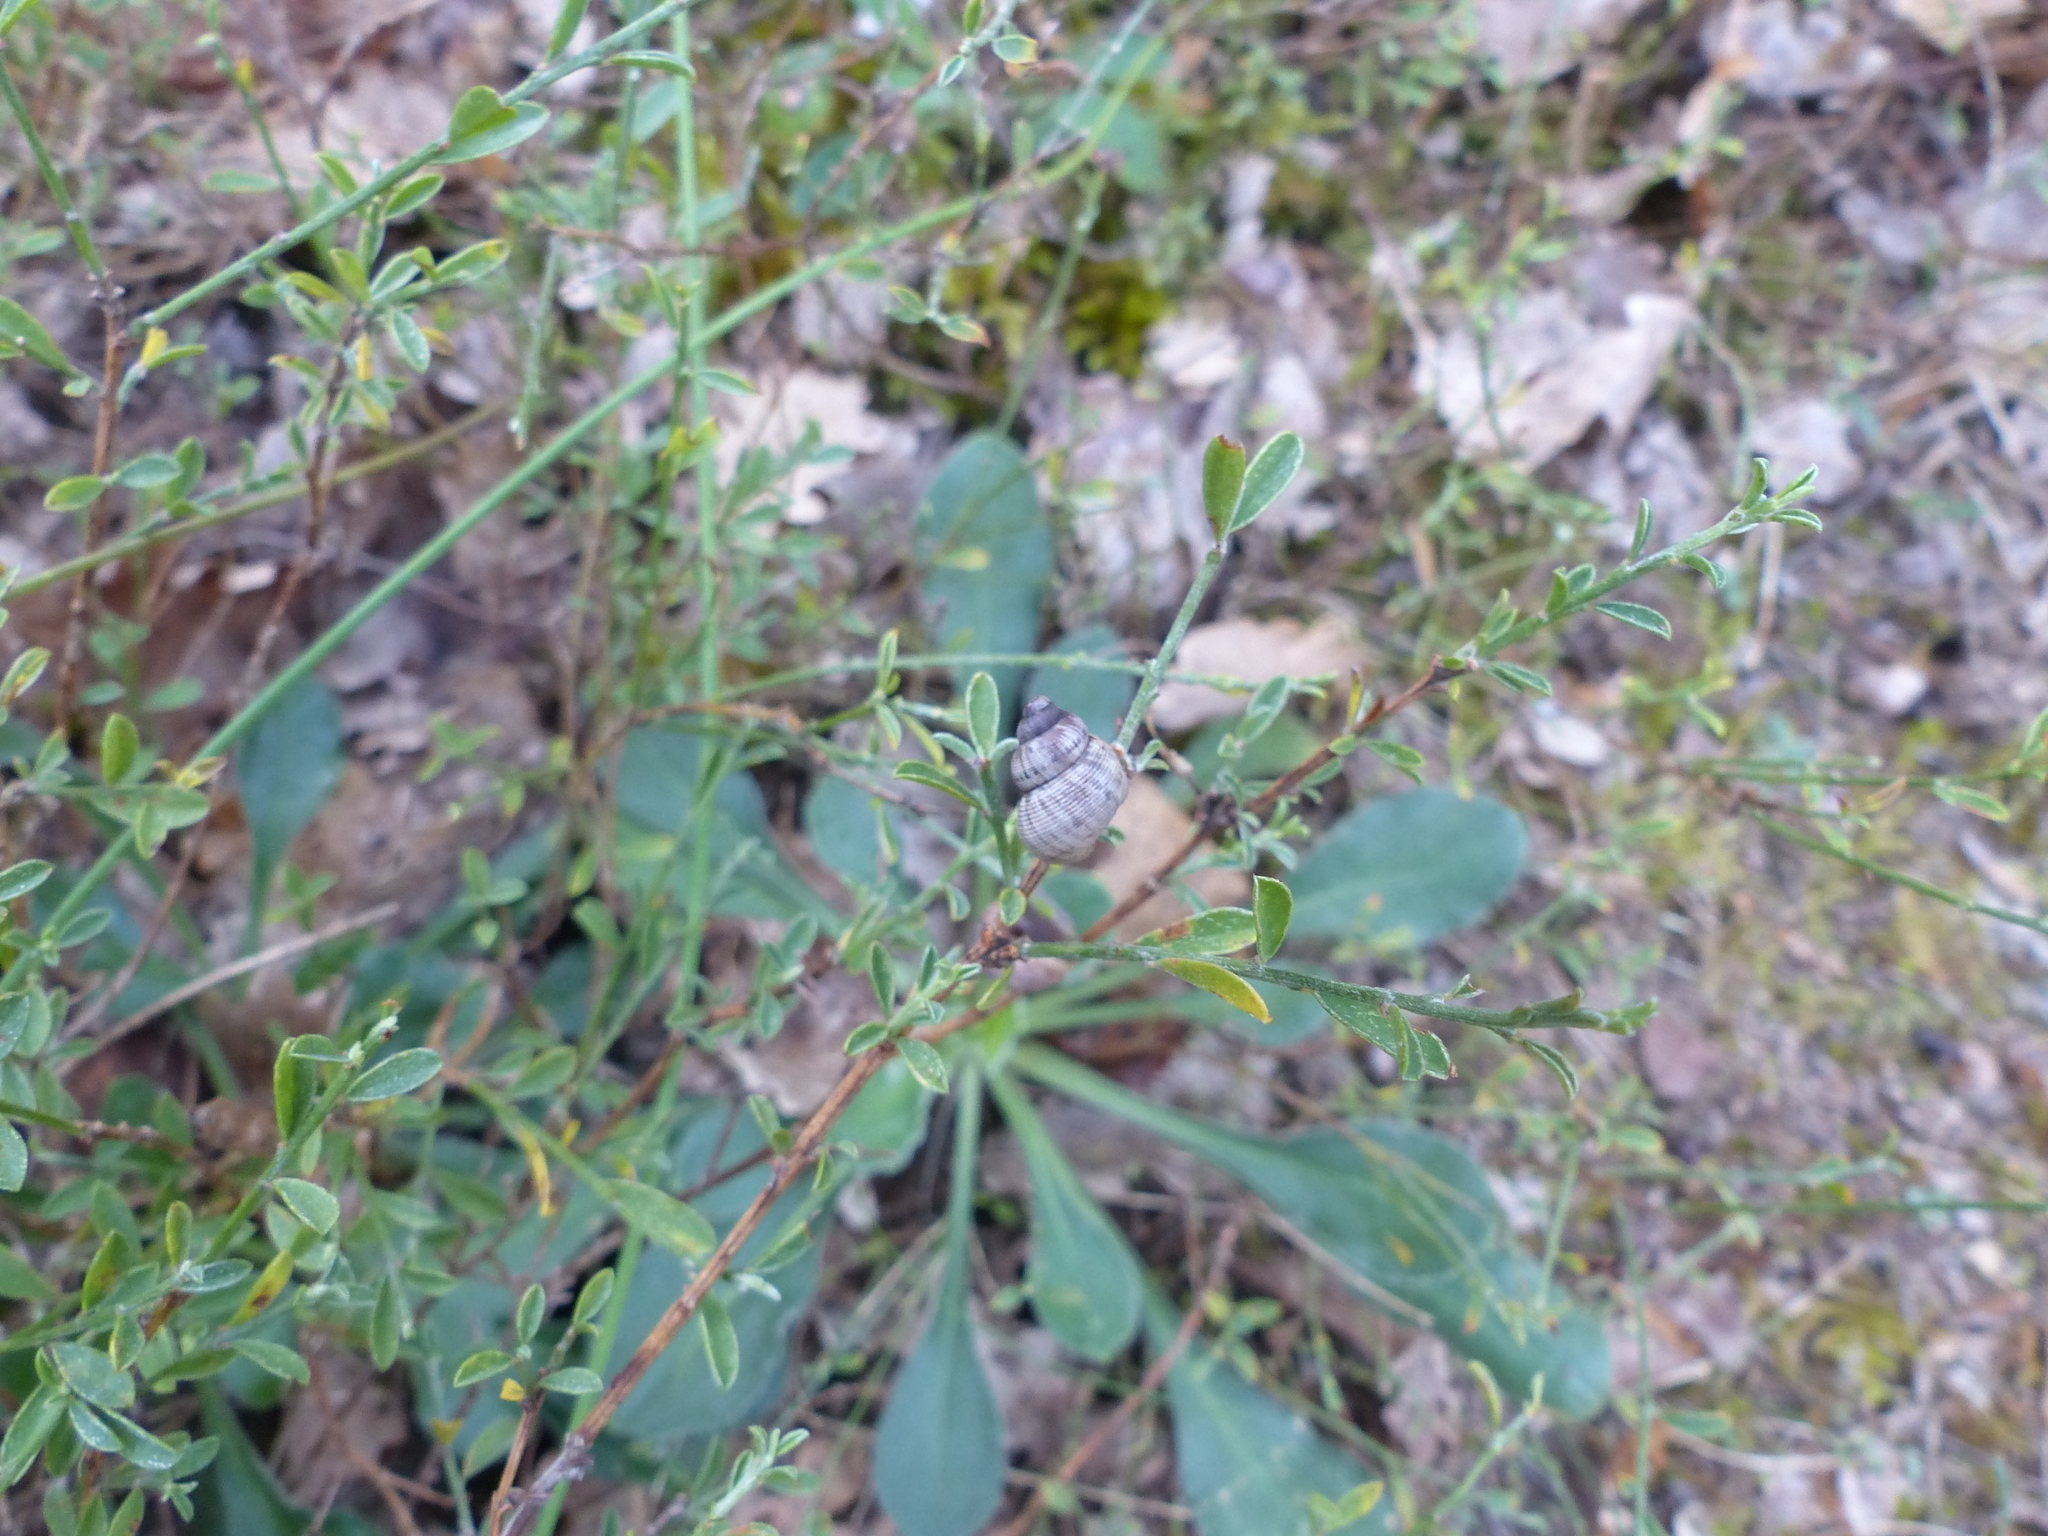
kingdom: Animalia
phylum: Mollusca
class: Gastropoda
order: Littorinimorpha
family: Pomatiidae
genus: Pomatias
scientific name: Pomatias elegans
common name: Red-mouthed snail
